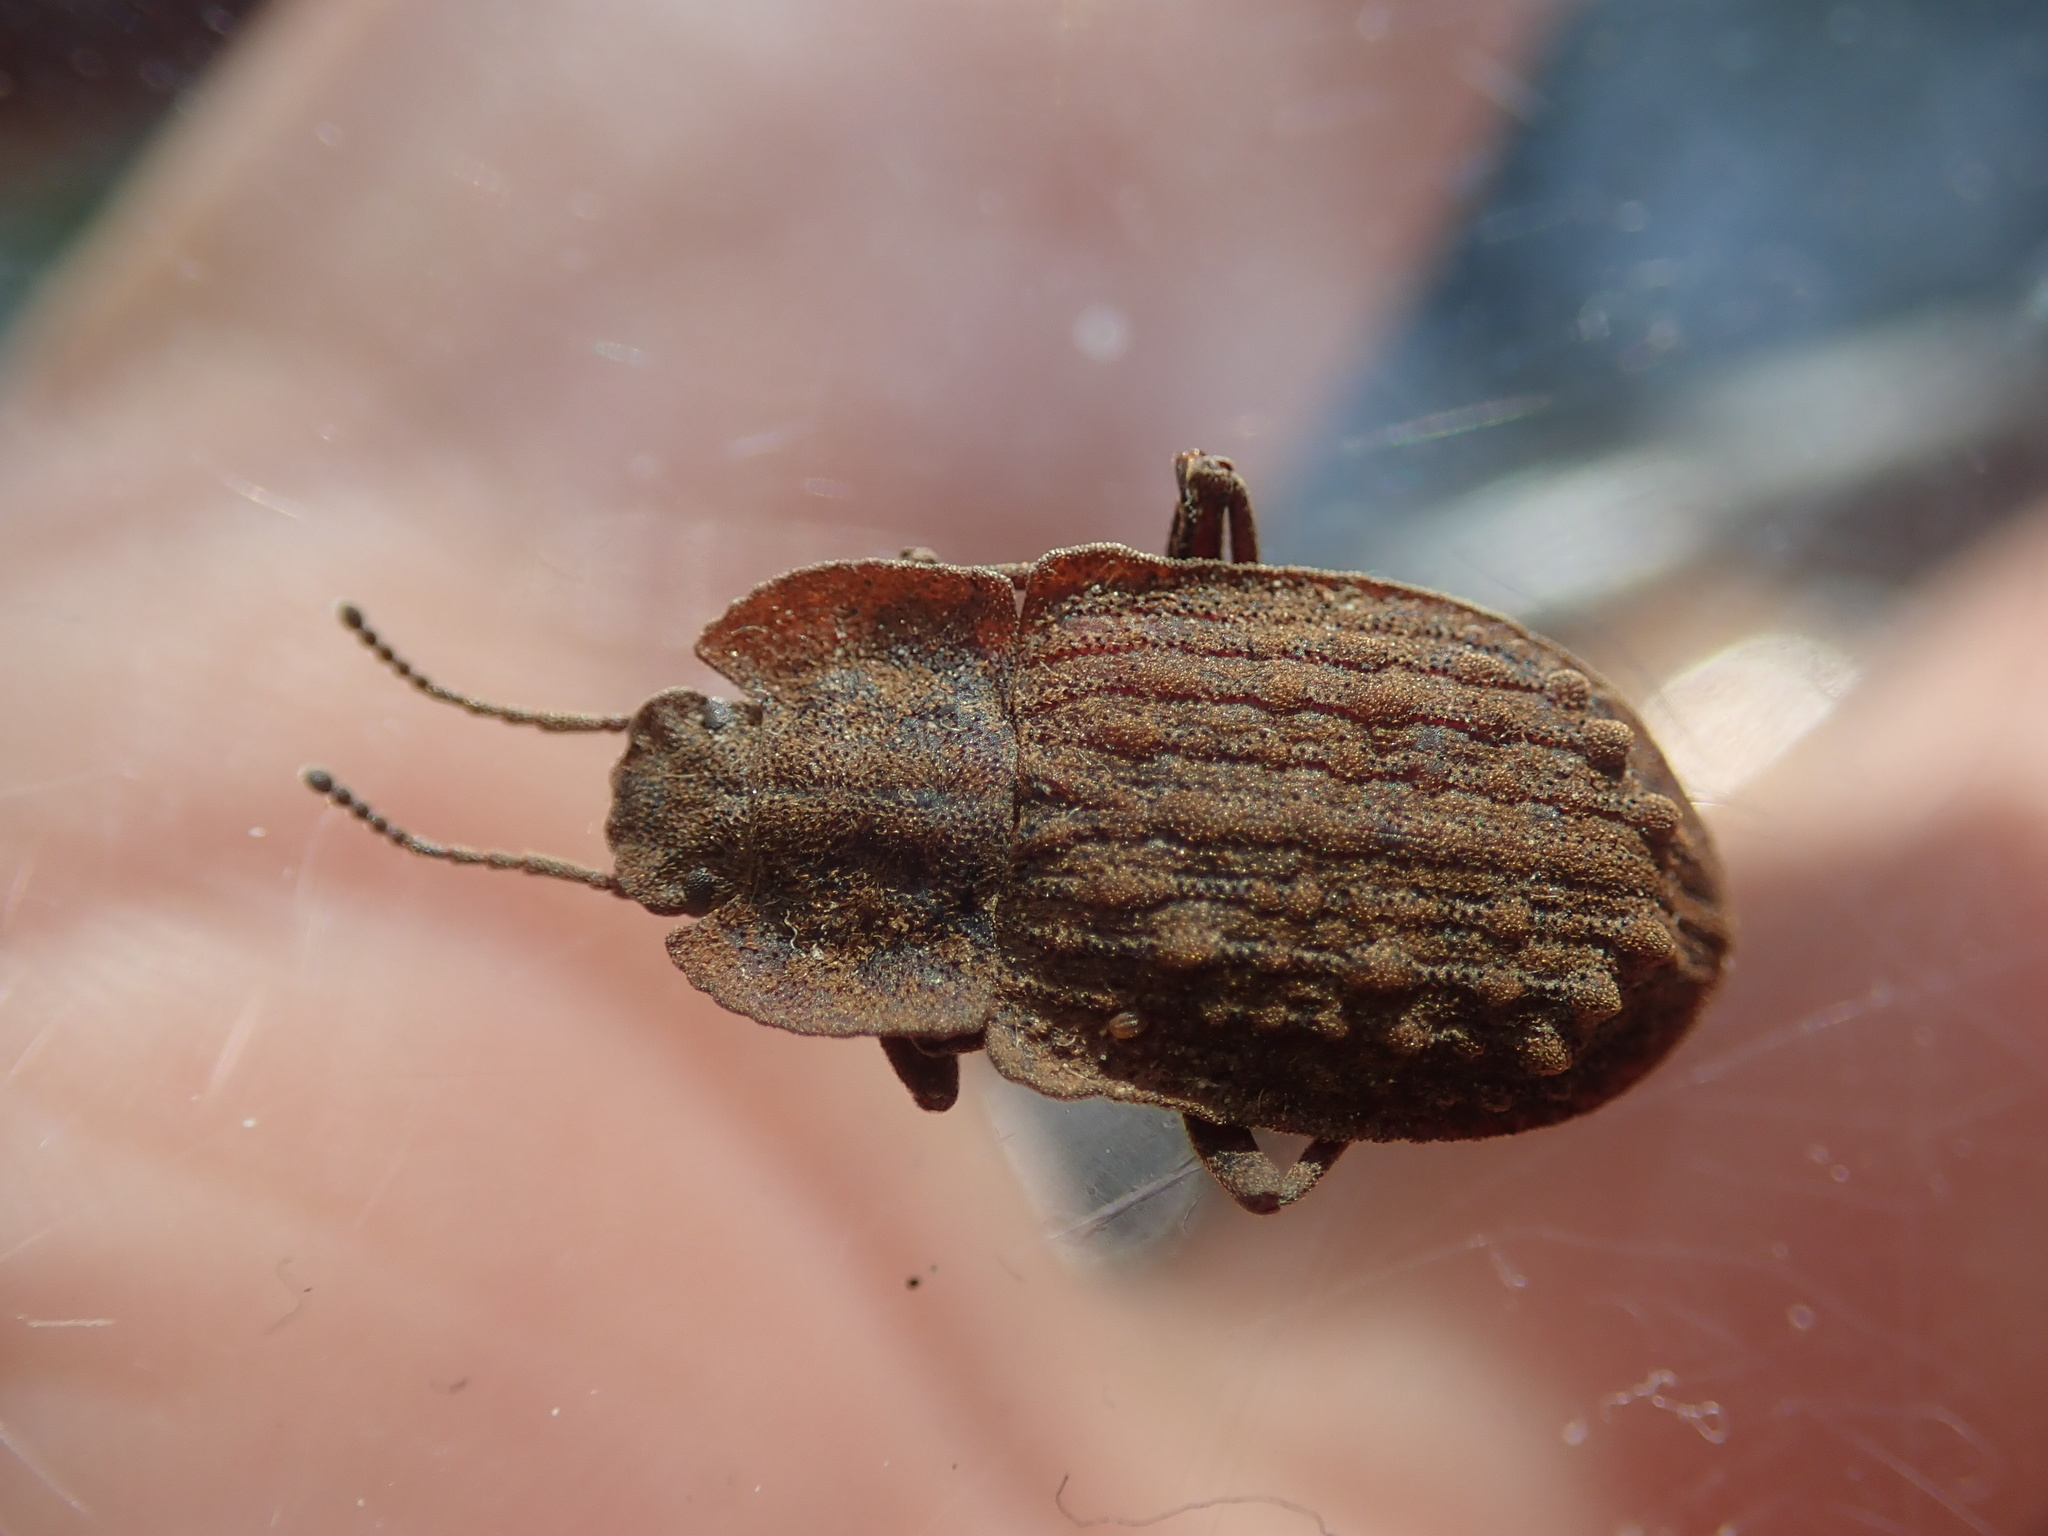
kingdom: Animalia
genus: Mitua
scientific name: Mitua
